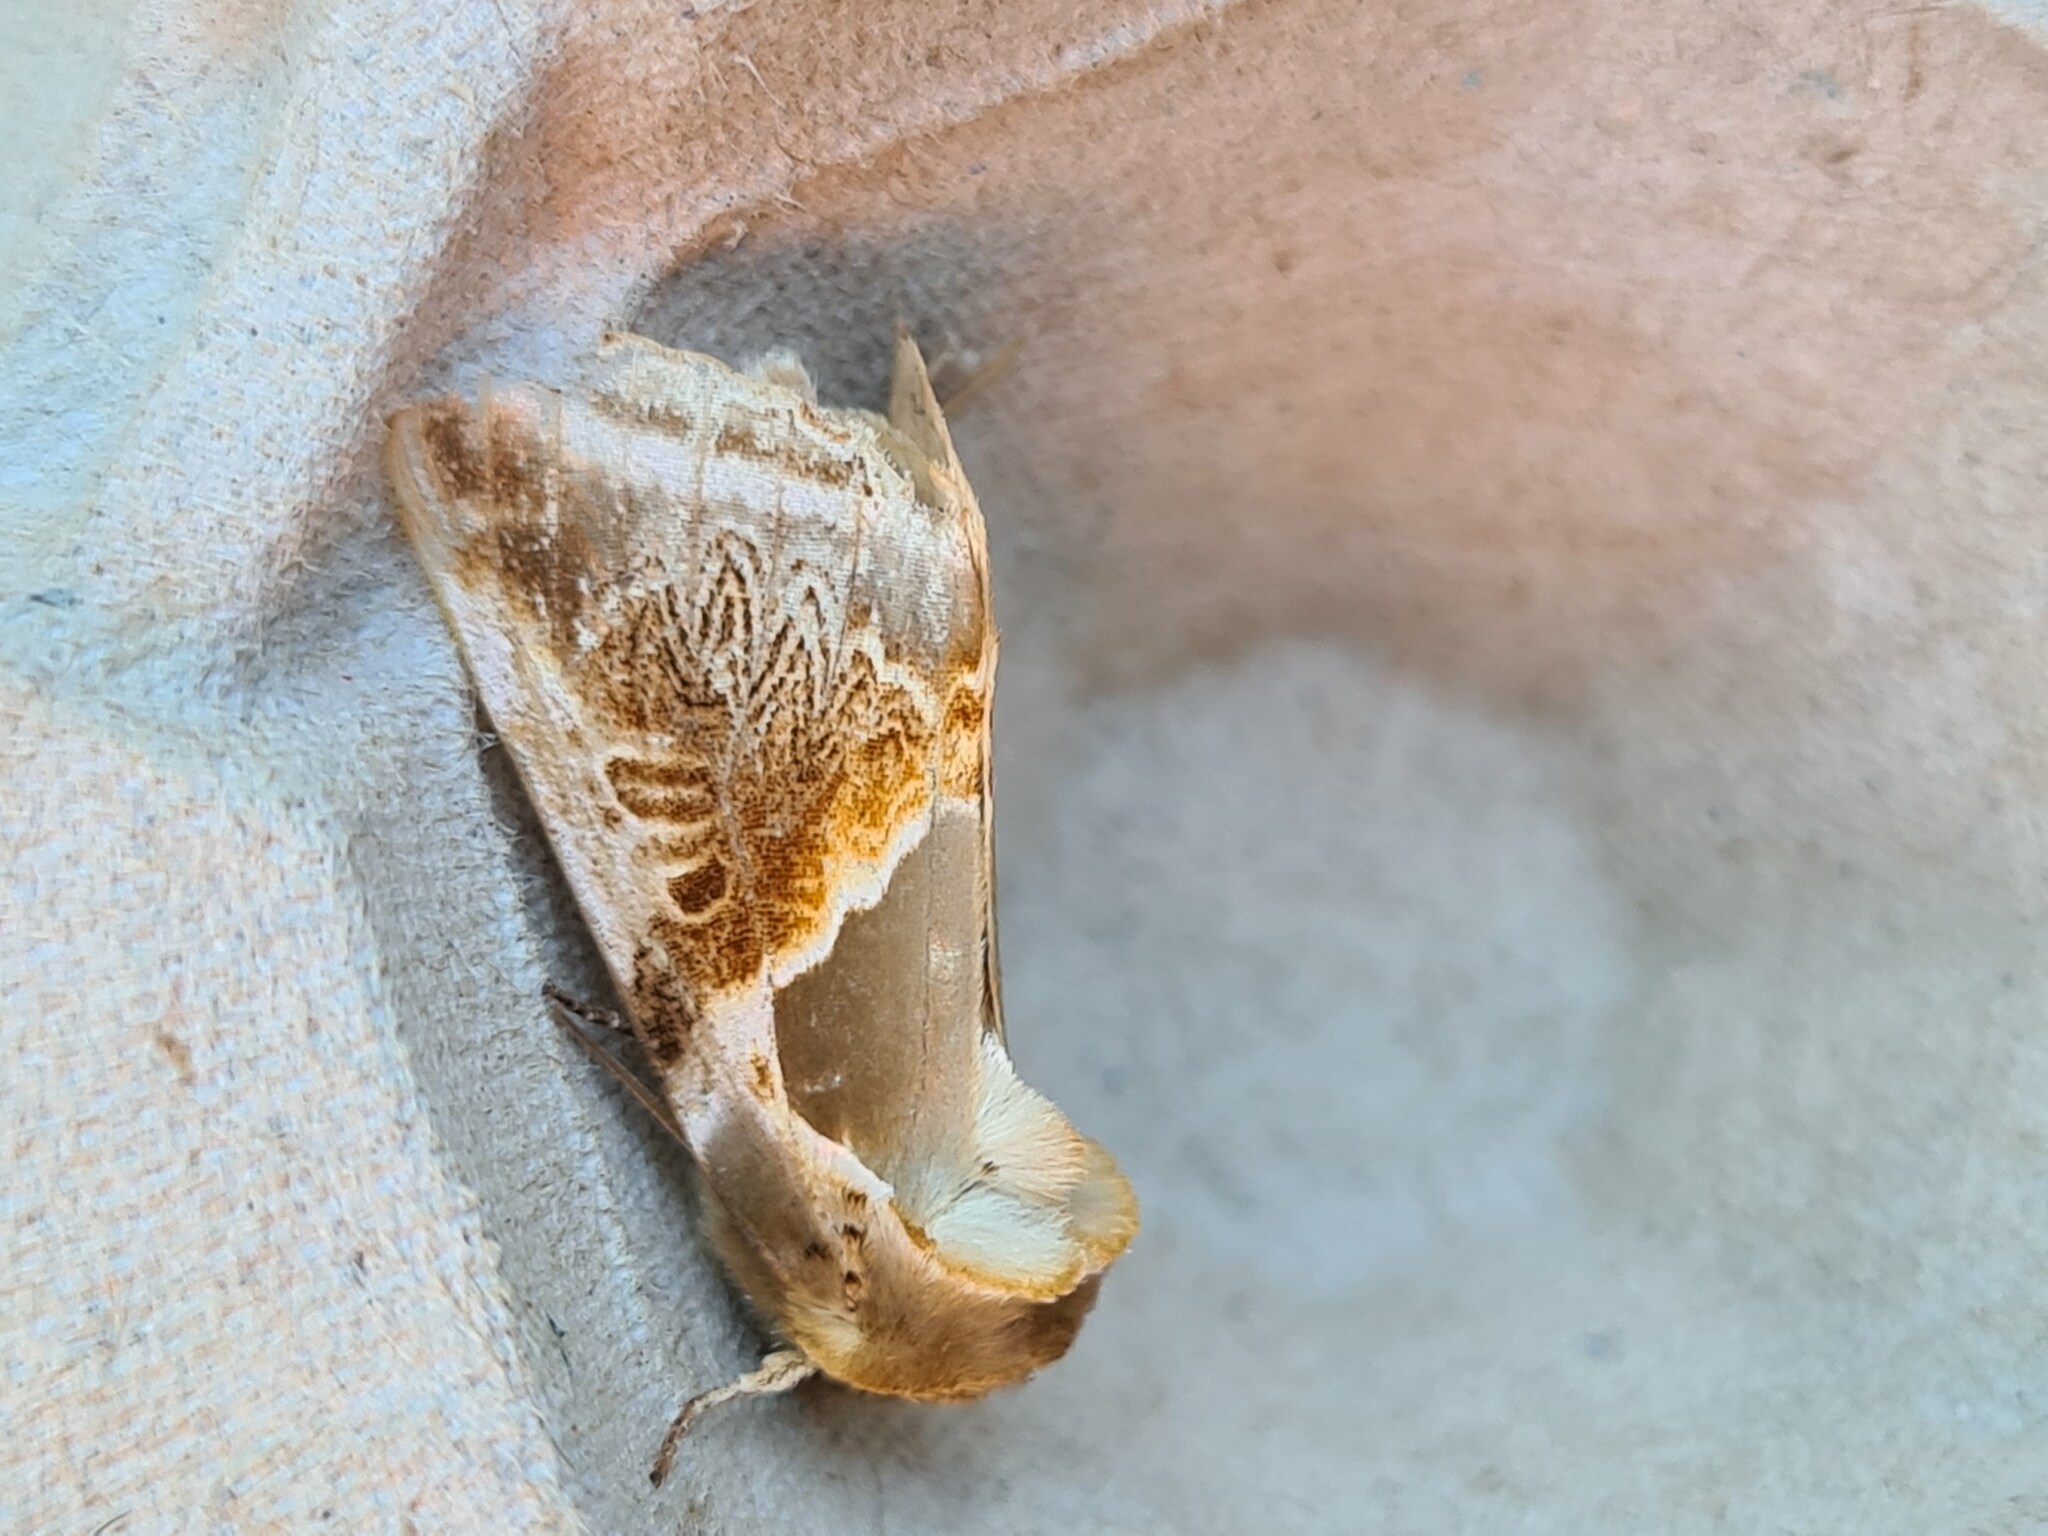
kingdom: Animalia
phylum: Arthropoda
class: Insecta
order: Lepidoptera
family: Drepanidae
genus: Habrosyne
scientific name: Habrosyne pyritoides
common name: Buff arches
